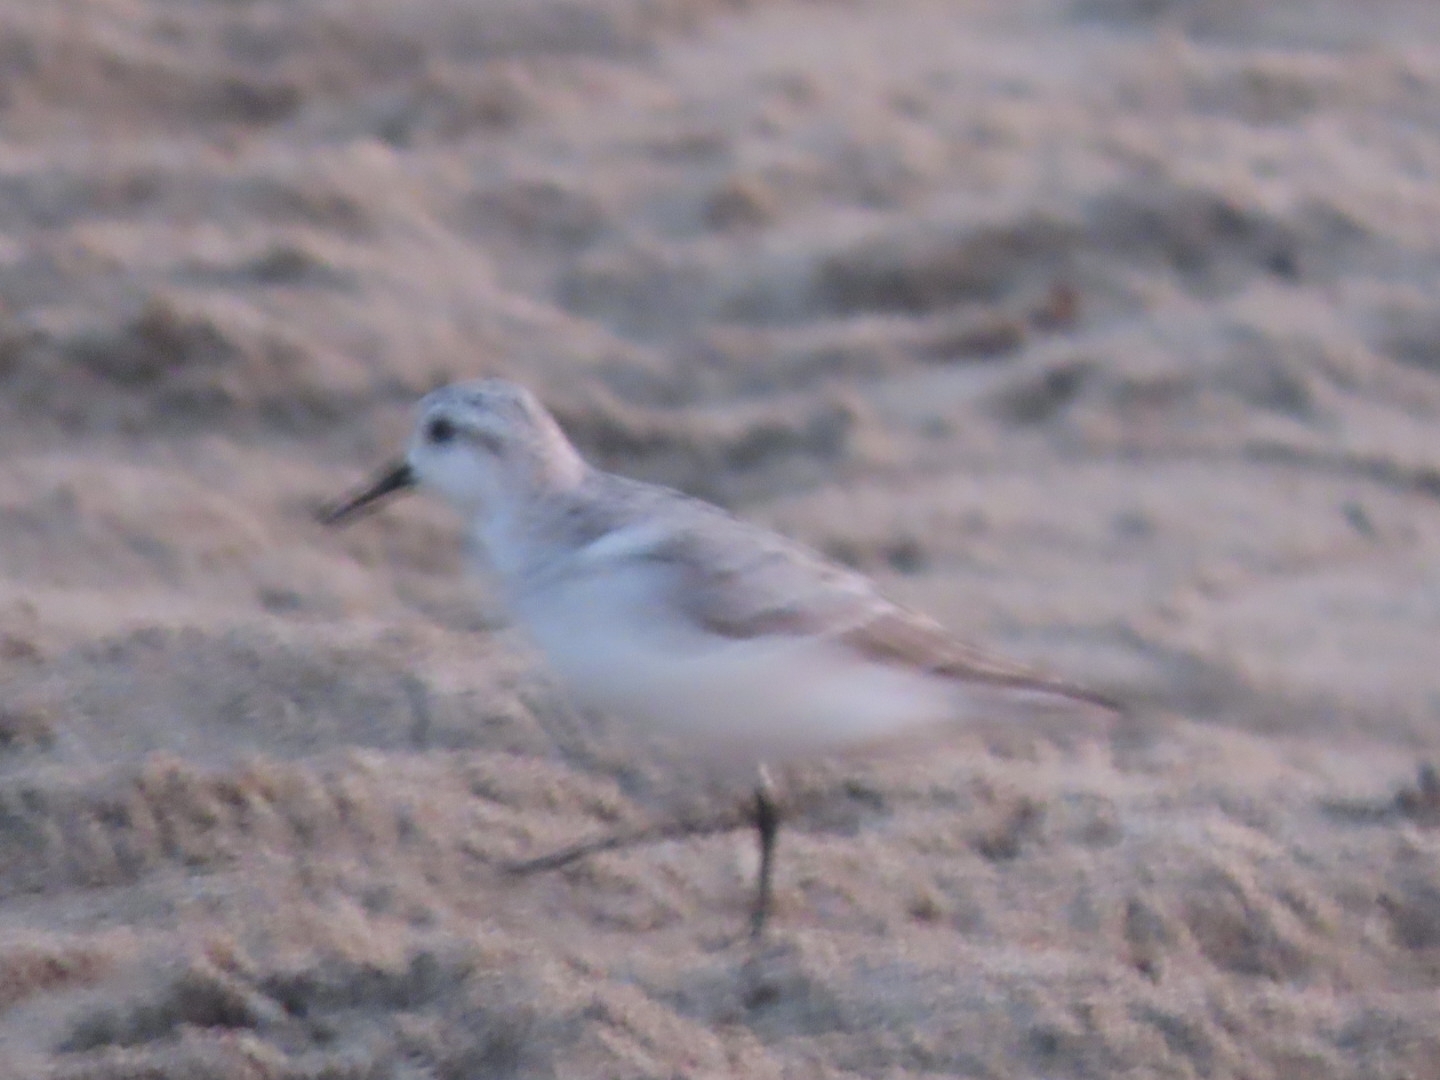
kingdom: Animalia
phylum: Chordata
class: Aves
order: Charadriiformes
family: Scolopacidae
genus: Calidris
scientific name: Calidris alba
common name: Sanderling
